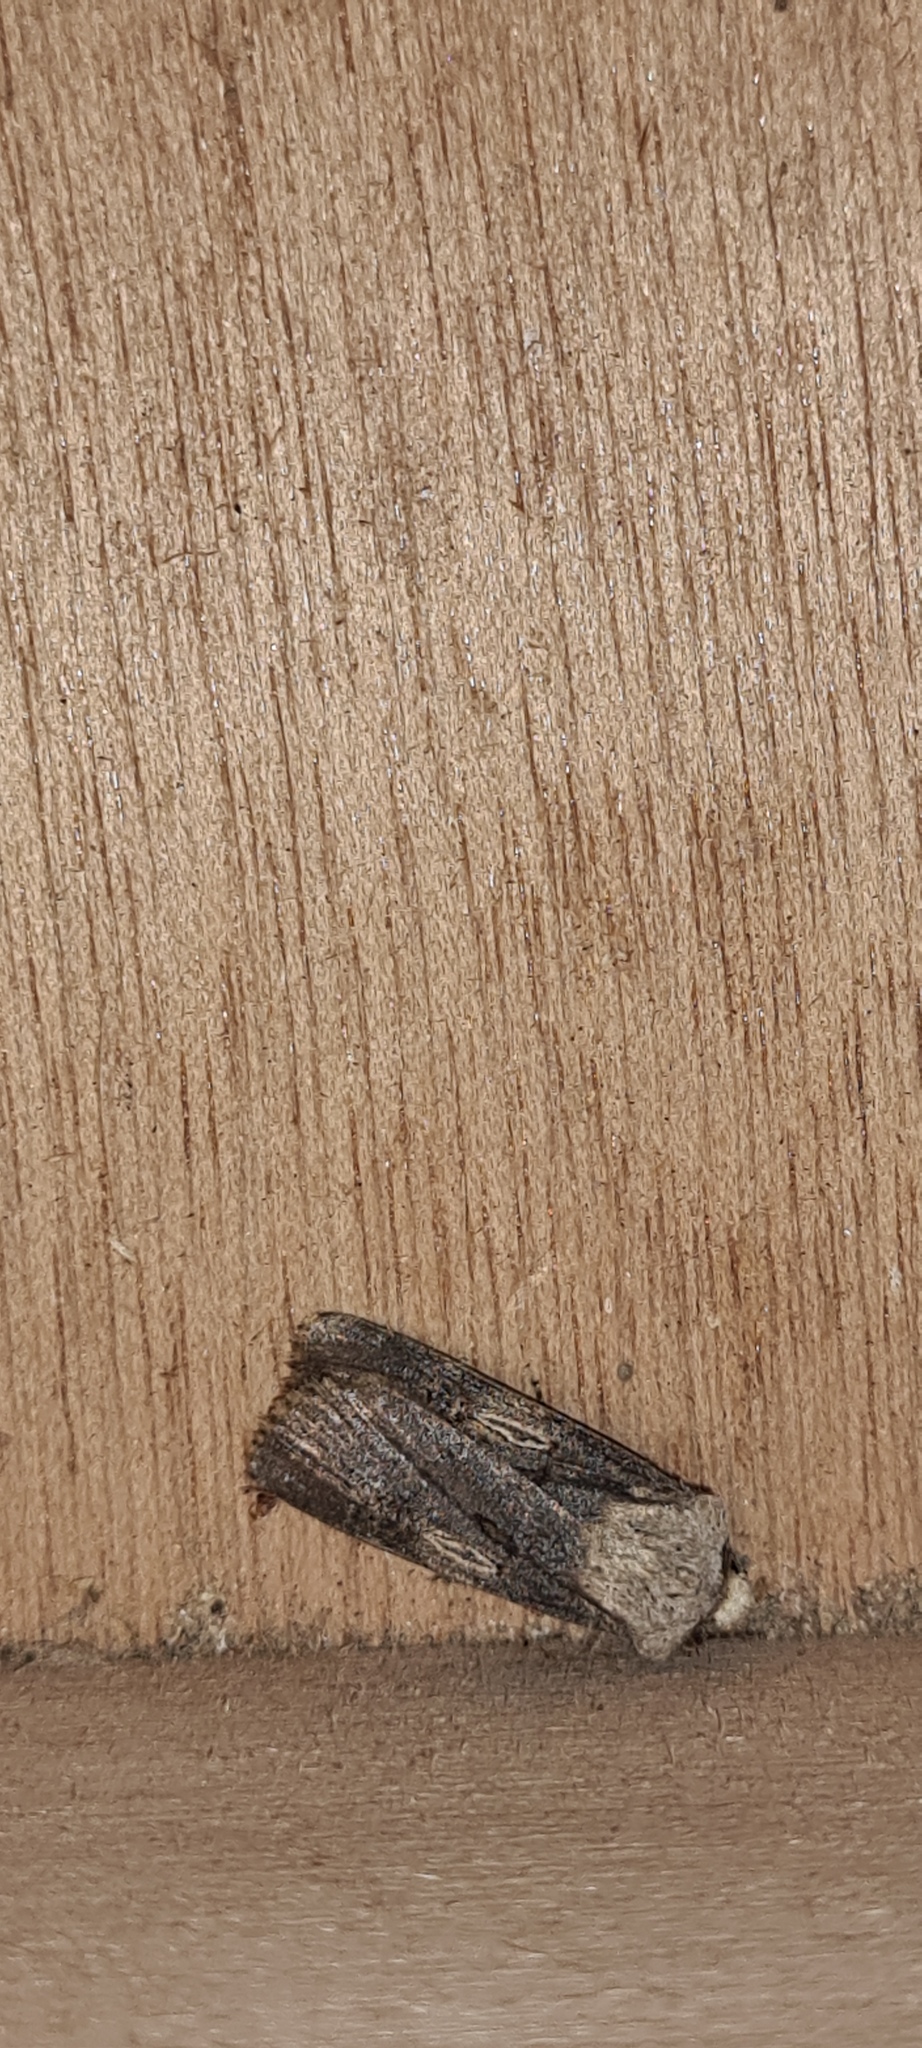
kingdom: Animalia
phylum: Arthropoda
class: Insecta
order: Lepidoptera
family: Noctuidae
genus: Agrotis
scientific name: Agrotis puta
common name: Shuttle-shaped dart
